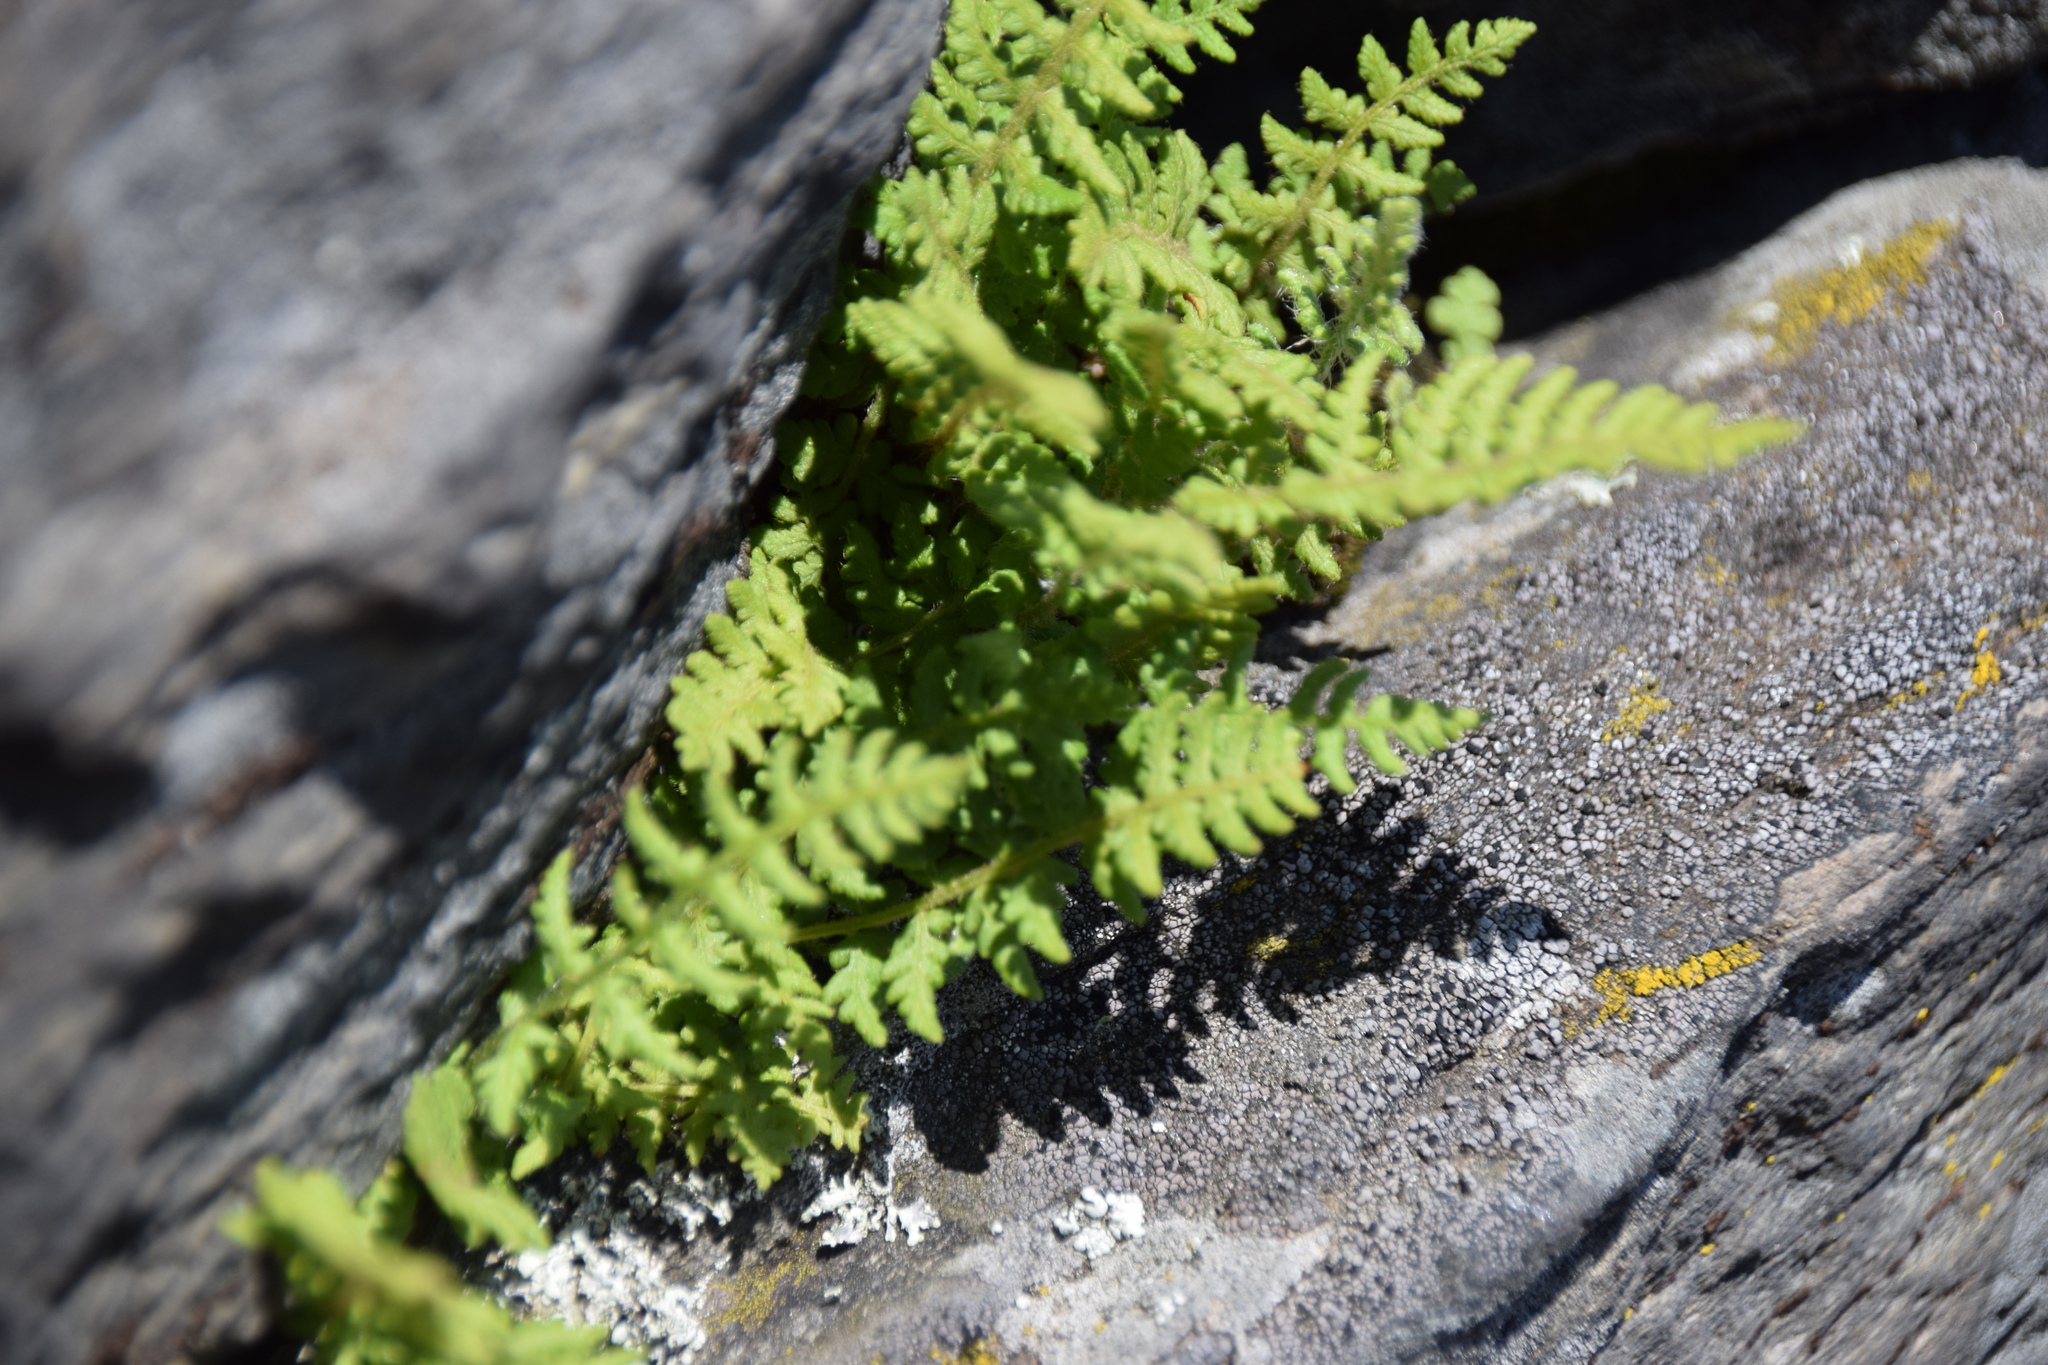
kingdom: Plantae
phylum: Tracheophyta
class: Polypodiopsida
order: Polypodiales
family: Woodsiaceae
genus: Woodsia
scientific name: Woodsia ilvensis
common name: Fragrant woodsia
